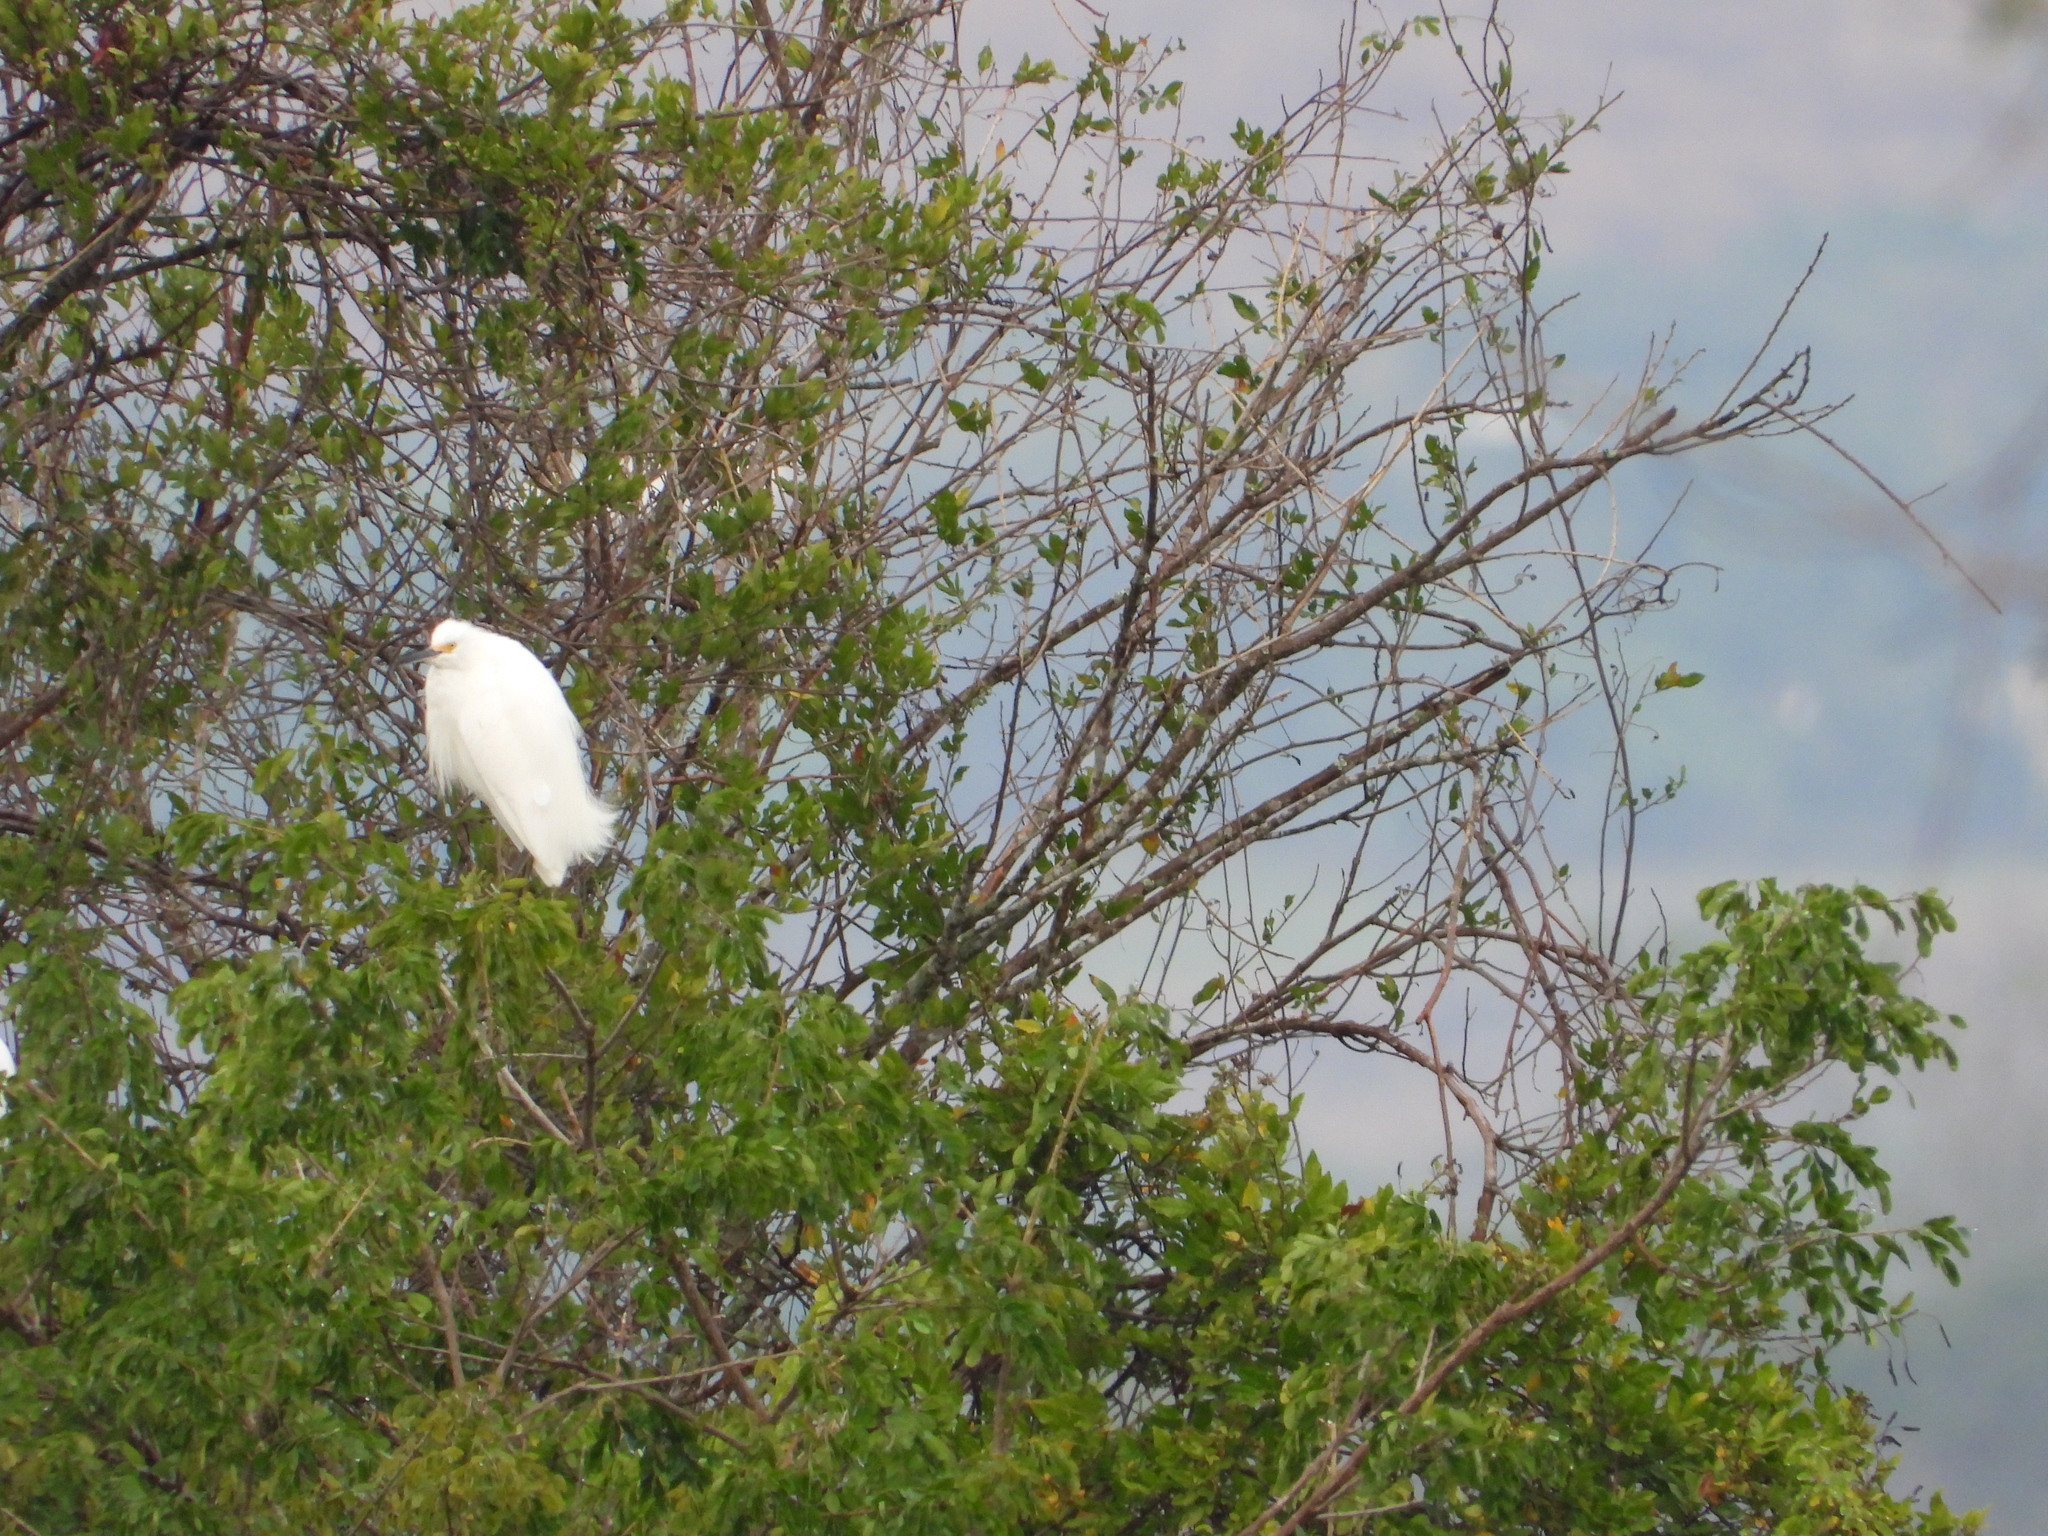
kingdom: Animalia
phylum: Chordata
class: Aves
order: Pelecaniformes
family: Ardeidae
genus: Egretta
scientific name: Egretta thula
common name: Snowy egret
